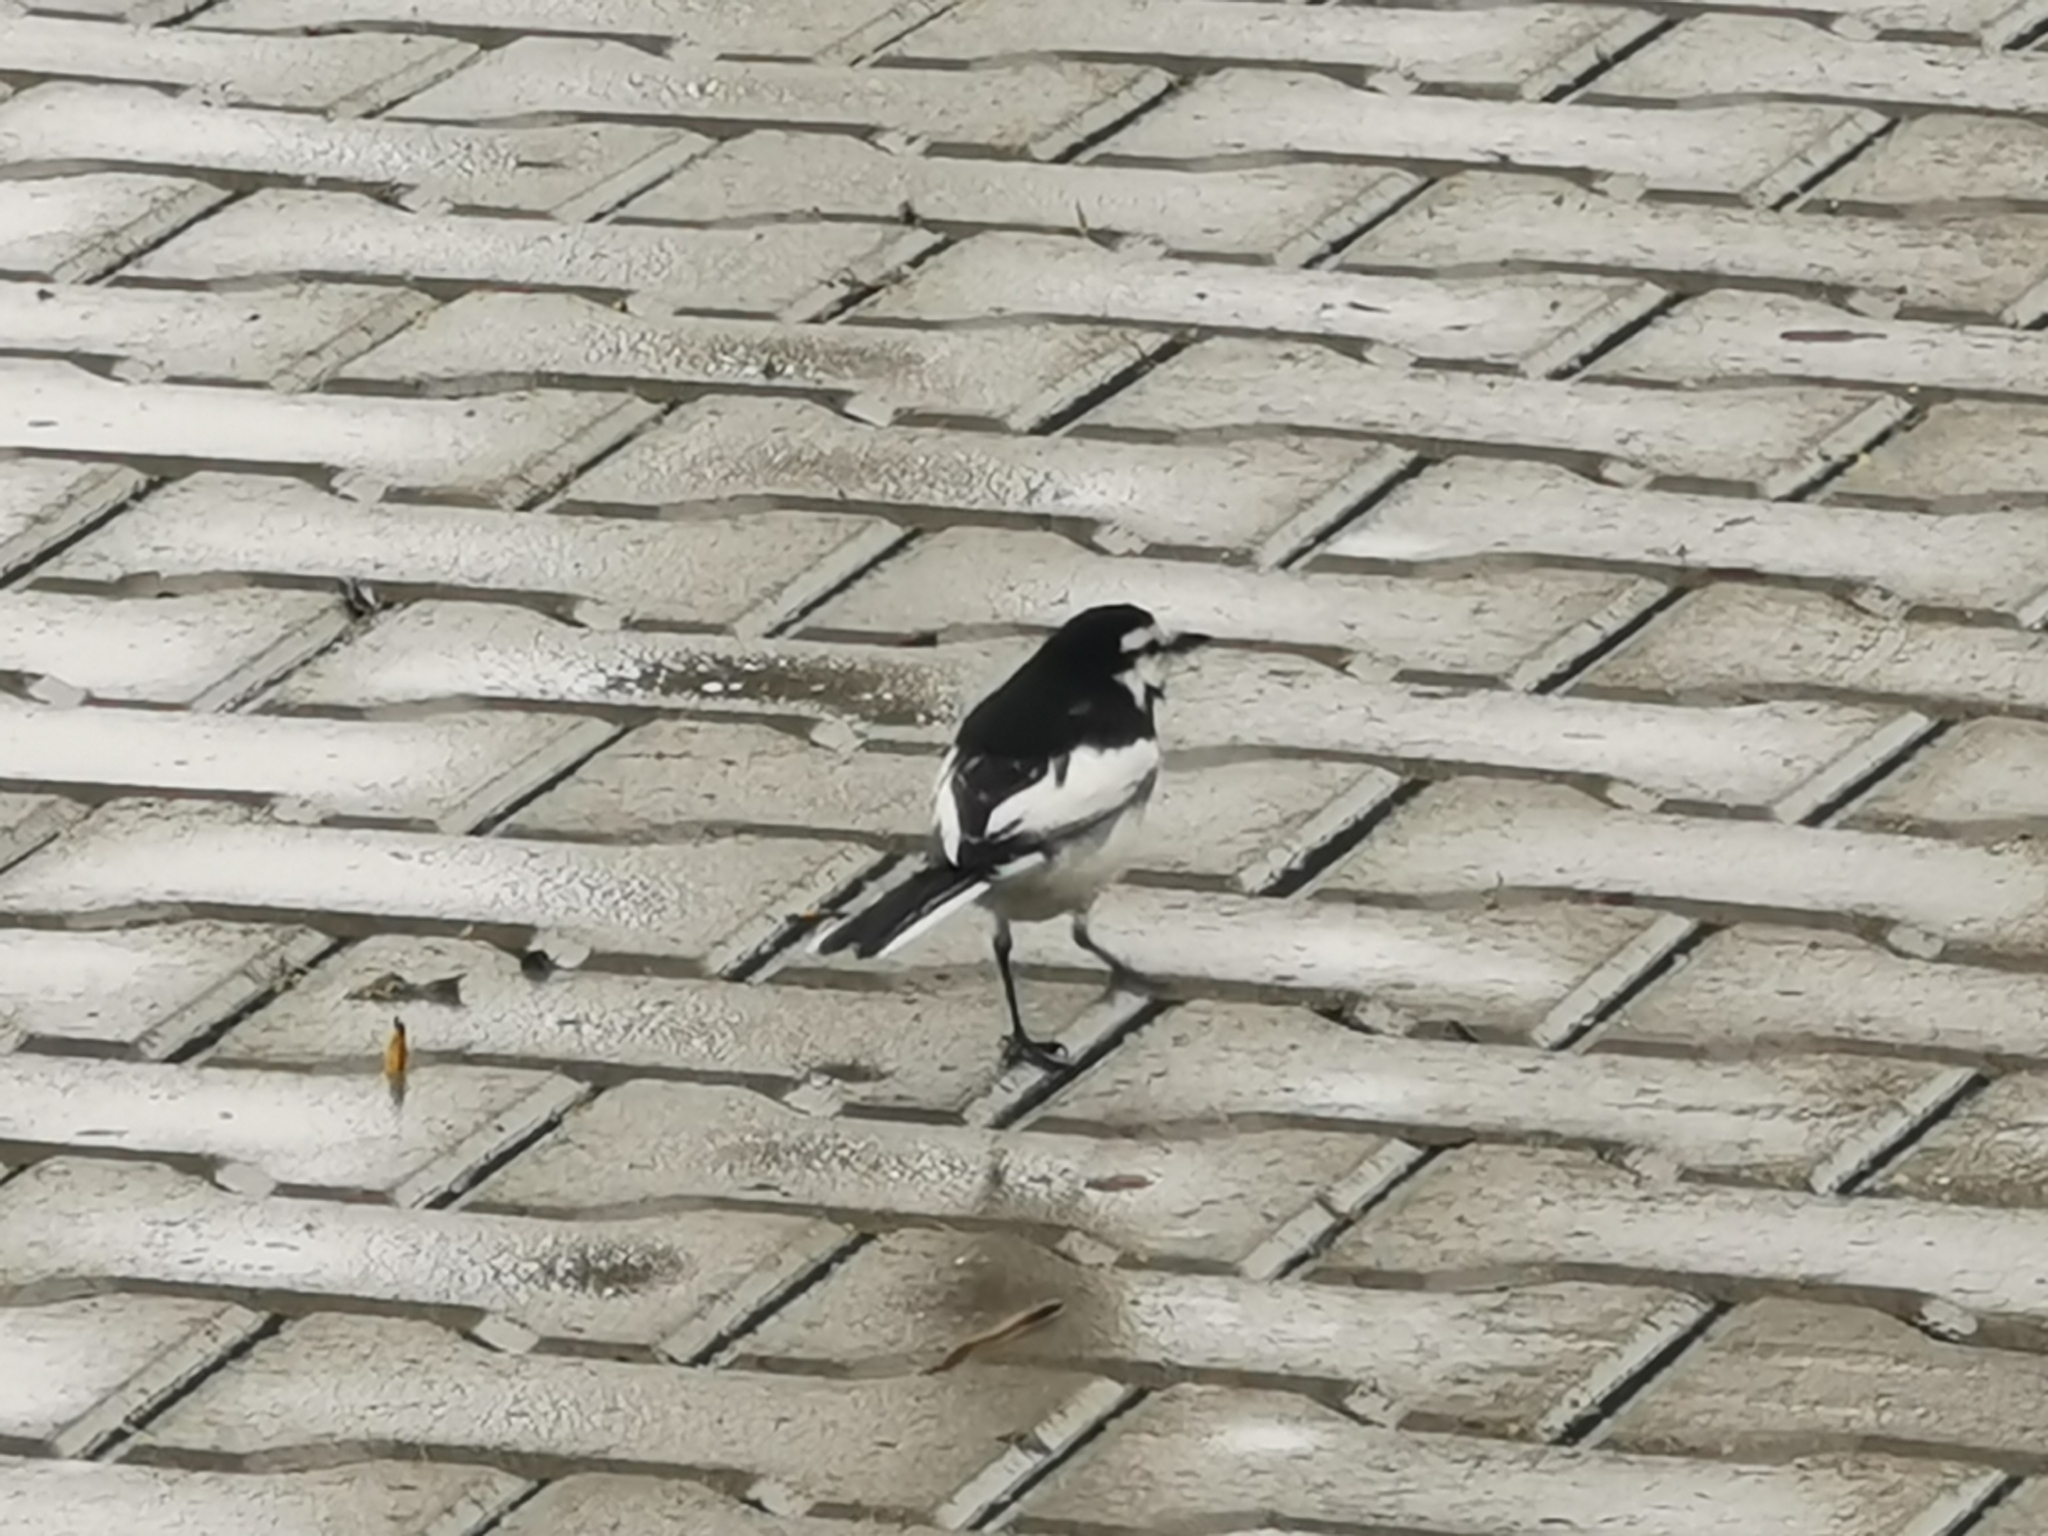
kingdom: Animalia
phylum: Chordata
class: Aves
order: Passeriformes
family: Motacillidae
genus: Motacilla
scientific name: Motacilla alba
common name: White wagtail
